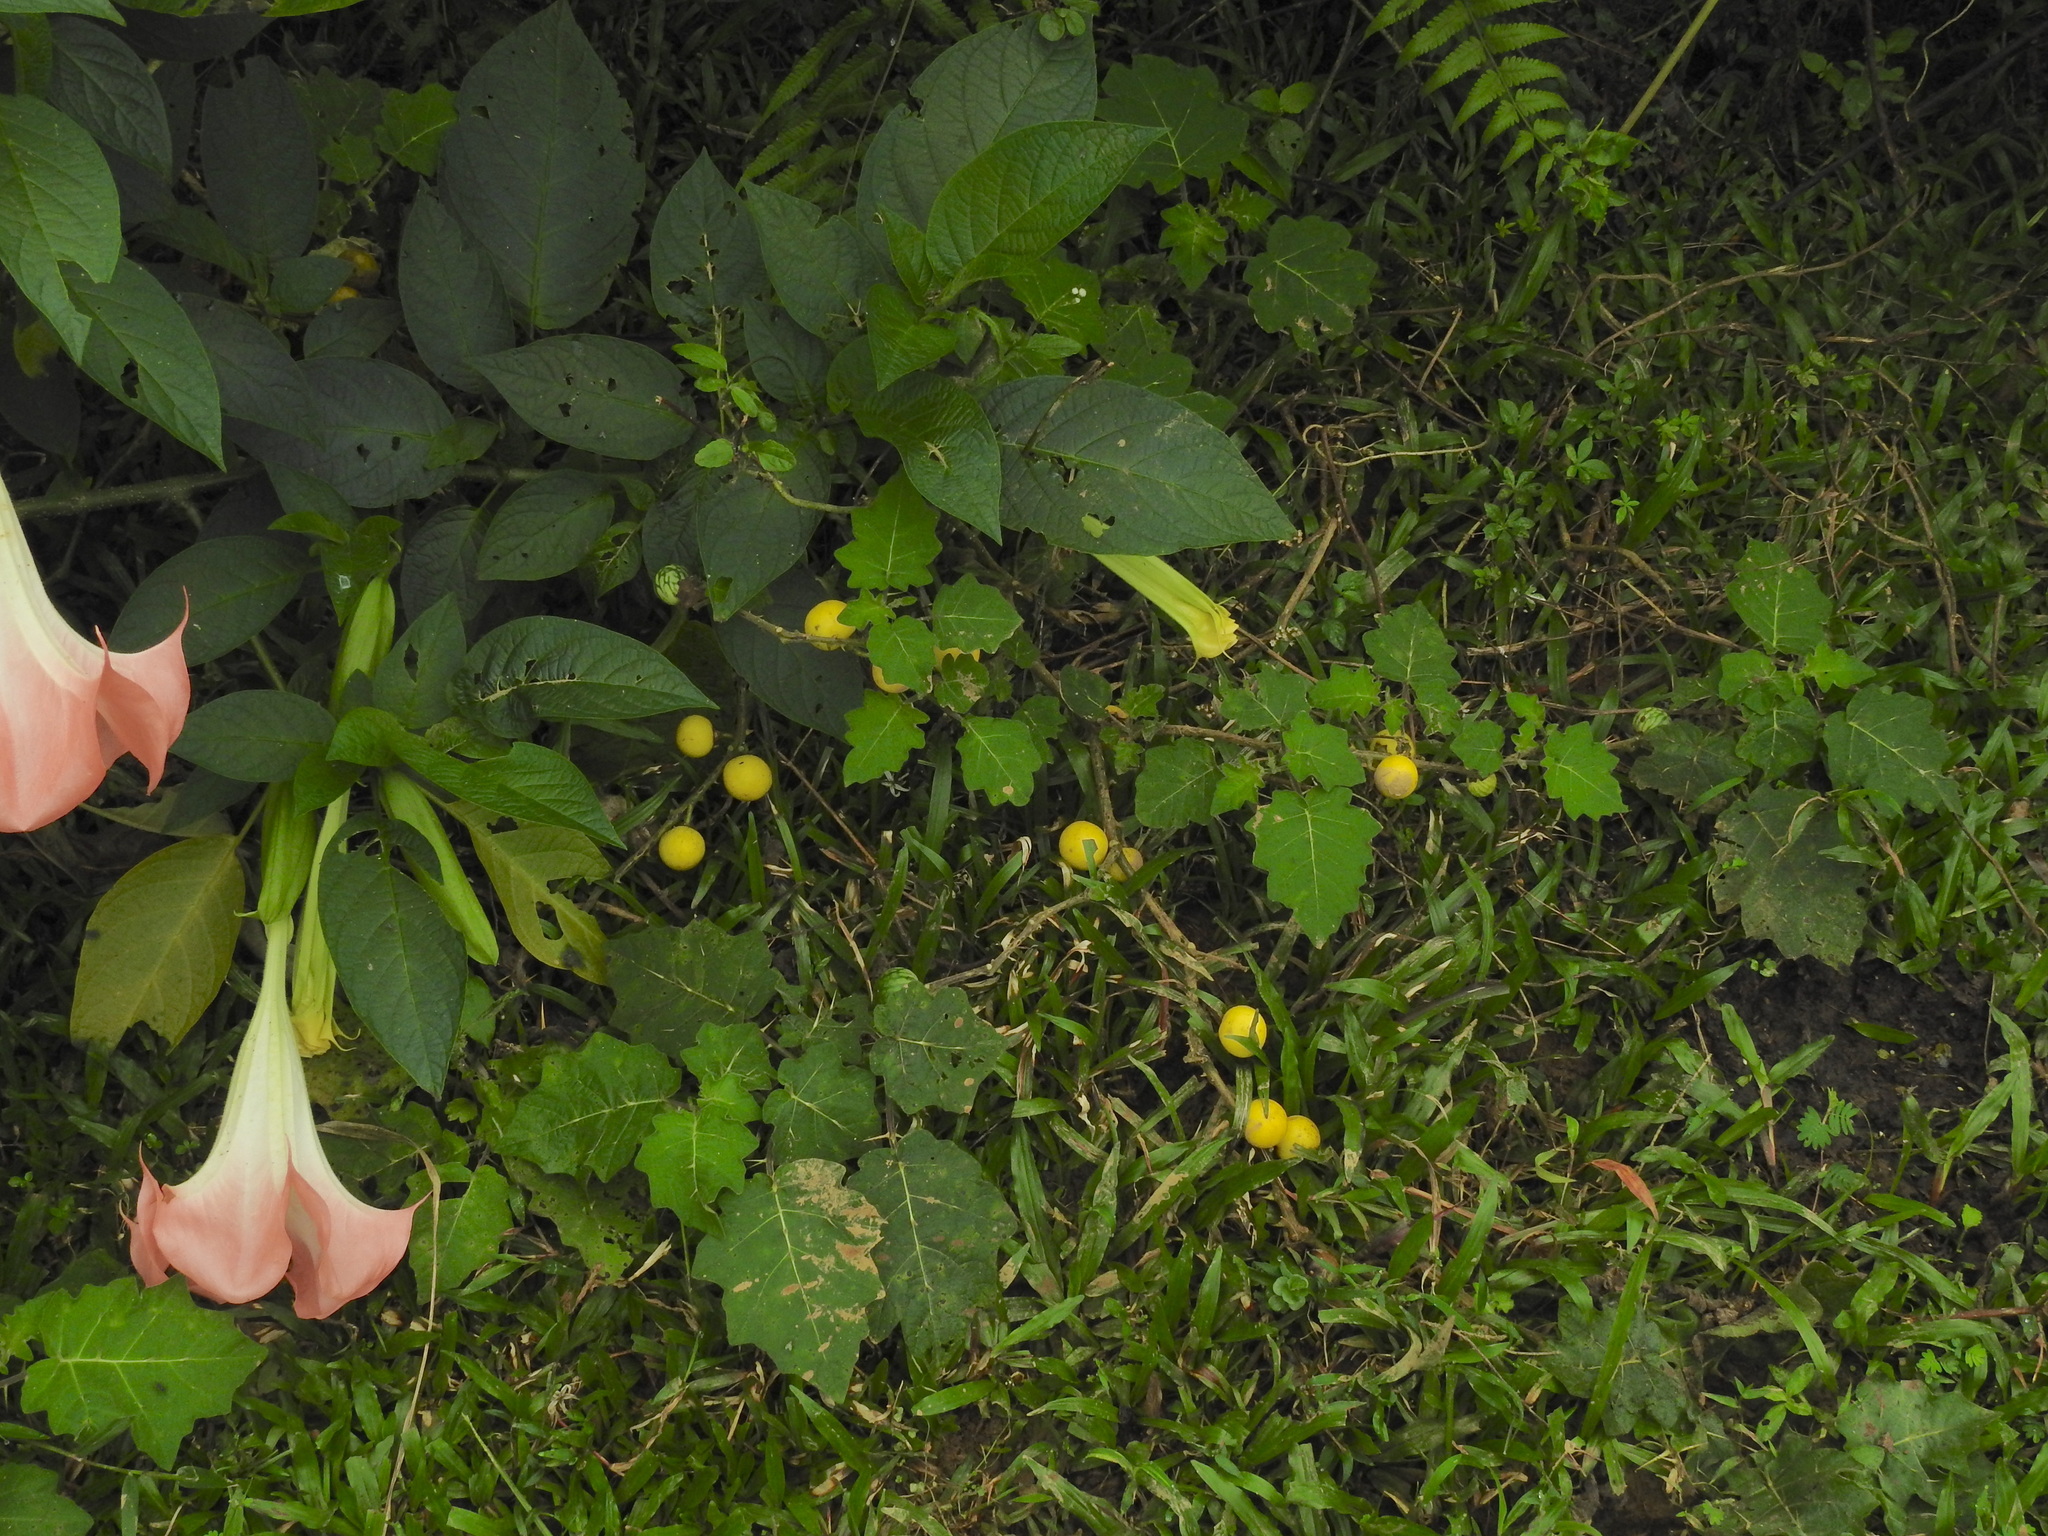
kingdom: Plantae
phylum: Tracheophyta
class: Magnoliopsida
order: Solanales
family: Solanaceae
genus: Solanum
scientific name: Solanum viarum
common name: Tropical soda apple
